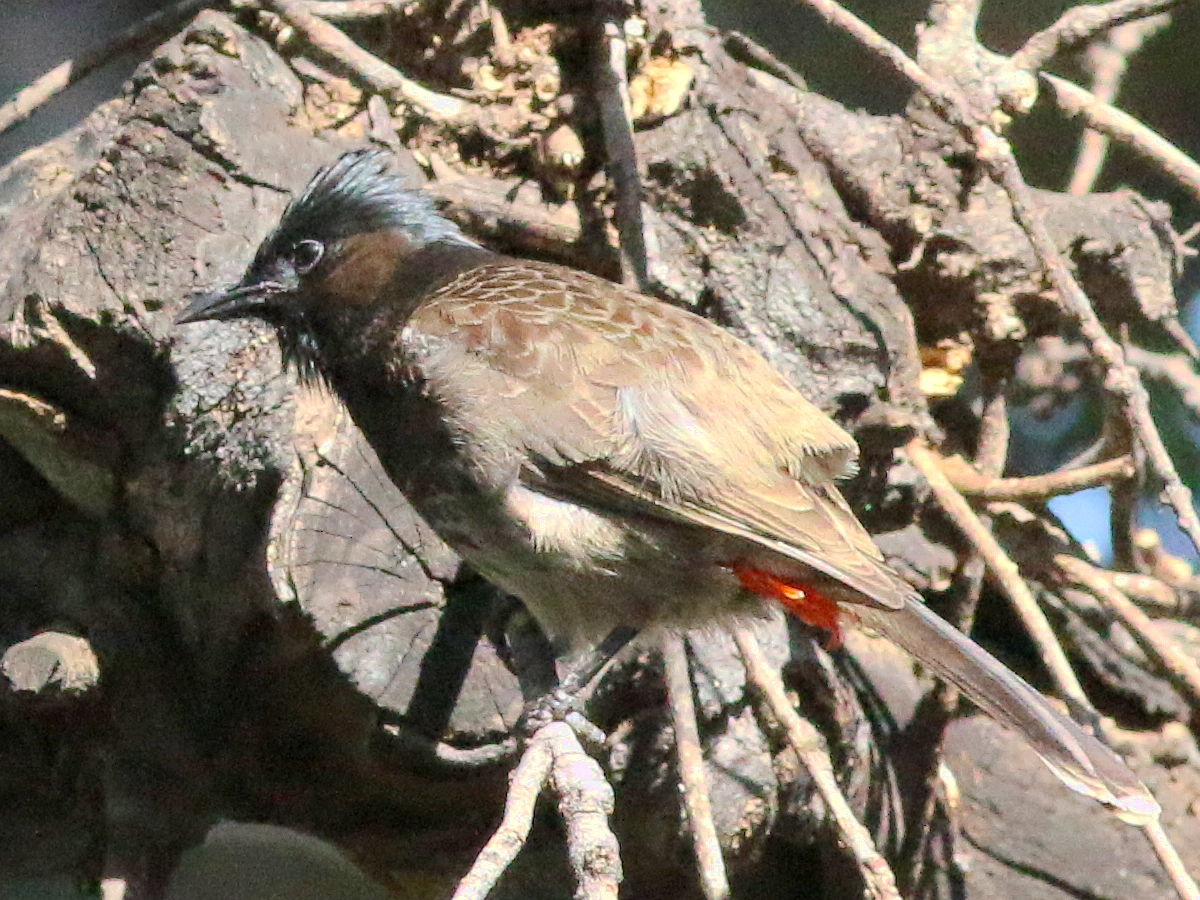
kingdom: Animalia
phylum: Chordata
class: Aves
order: Passeriformes
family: Pycnonotidae
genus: Pycnonotus
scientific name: Pycnonotus cafer
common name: Red-vented bulbul
